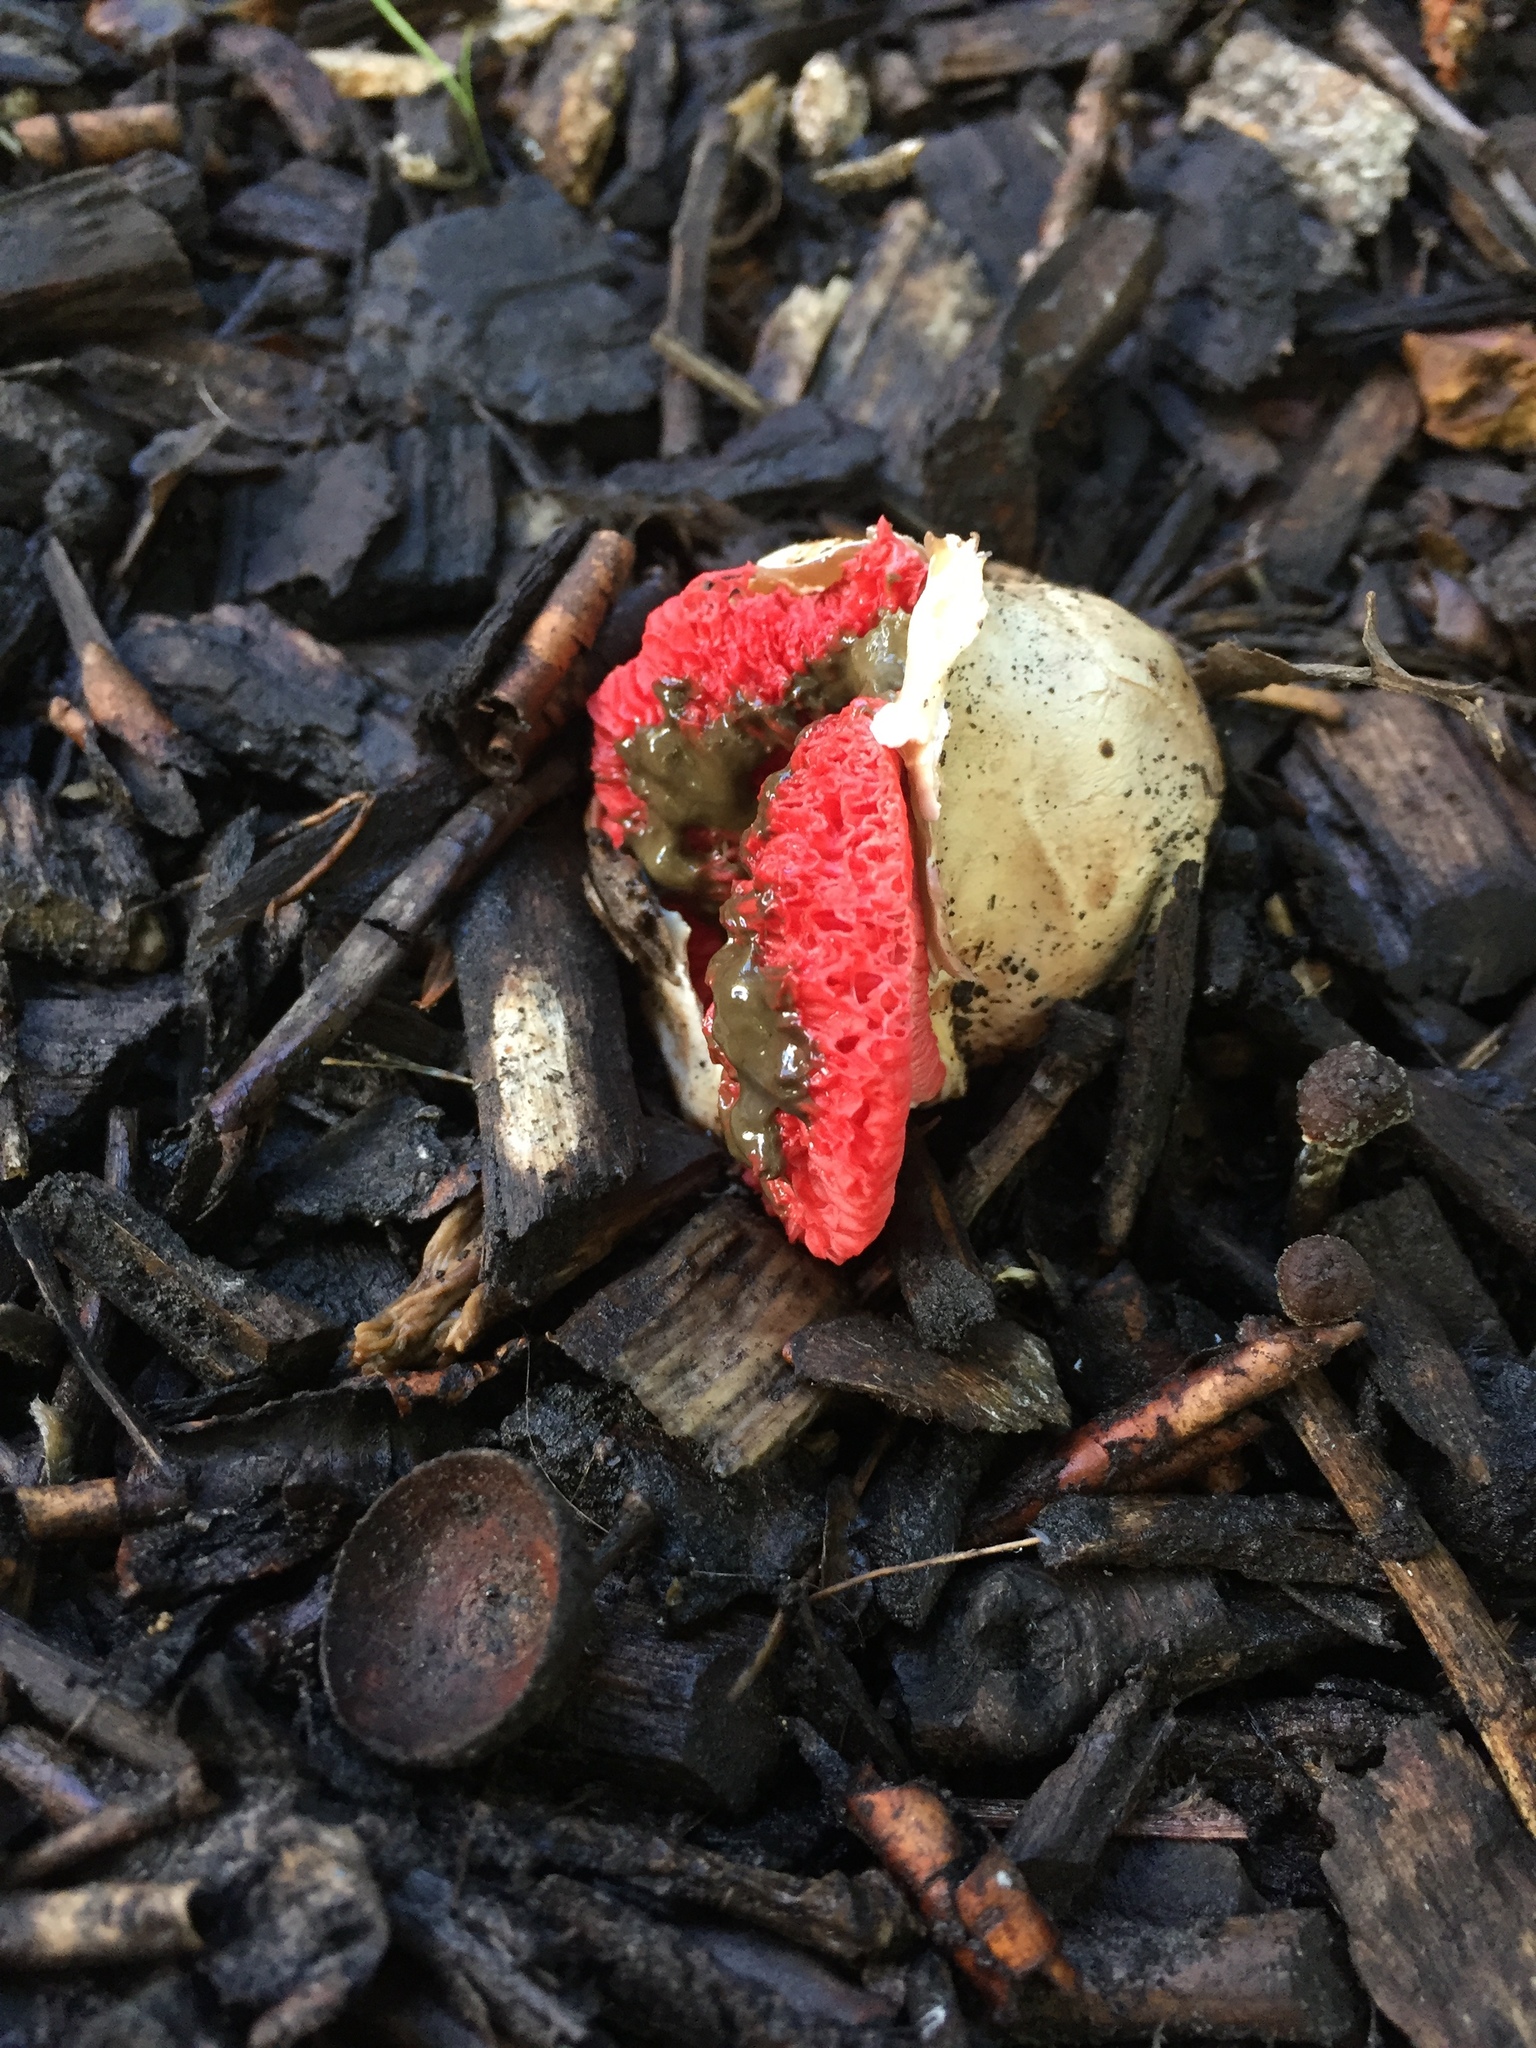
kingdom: Fungi
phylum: Basidiomycota
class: Agaricomycetes
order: Phallales
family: Phallaceae
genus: Clathrus
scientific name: Clathrus archeri
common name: Devil's fingers
